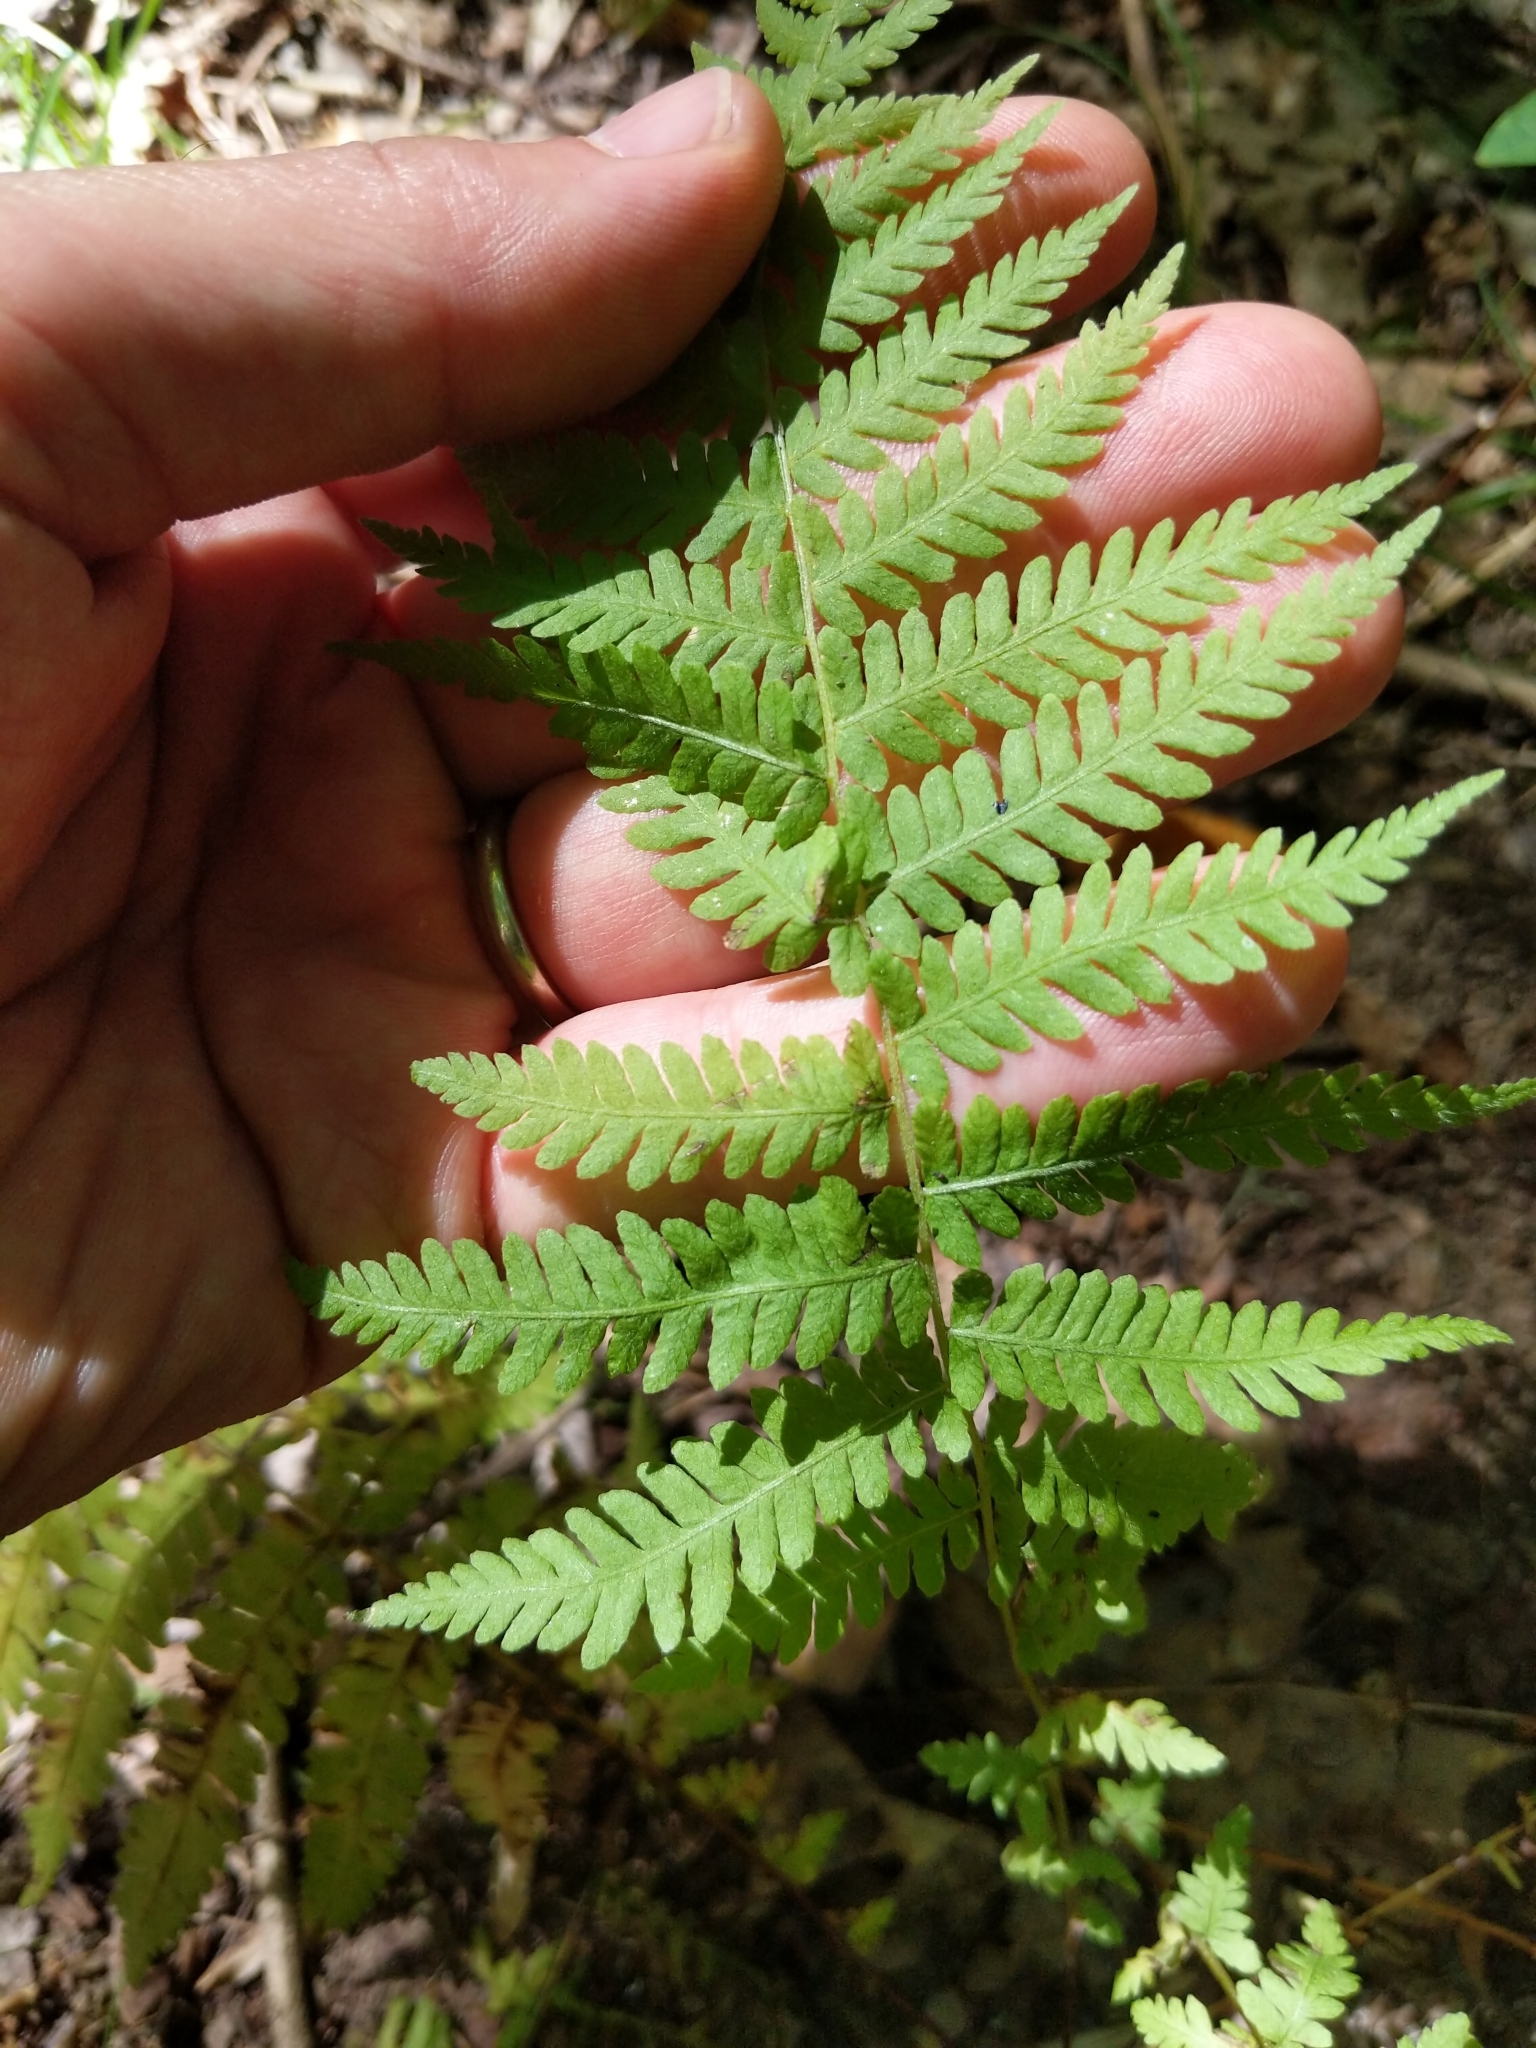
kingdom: Plantae
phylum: Tracheophyta
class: Polypodiopsida
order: Polypodiales
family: Thelypteridaceae
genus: Amauropelta
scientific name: Amauropelta noveboracensis
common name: New york fern
